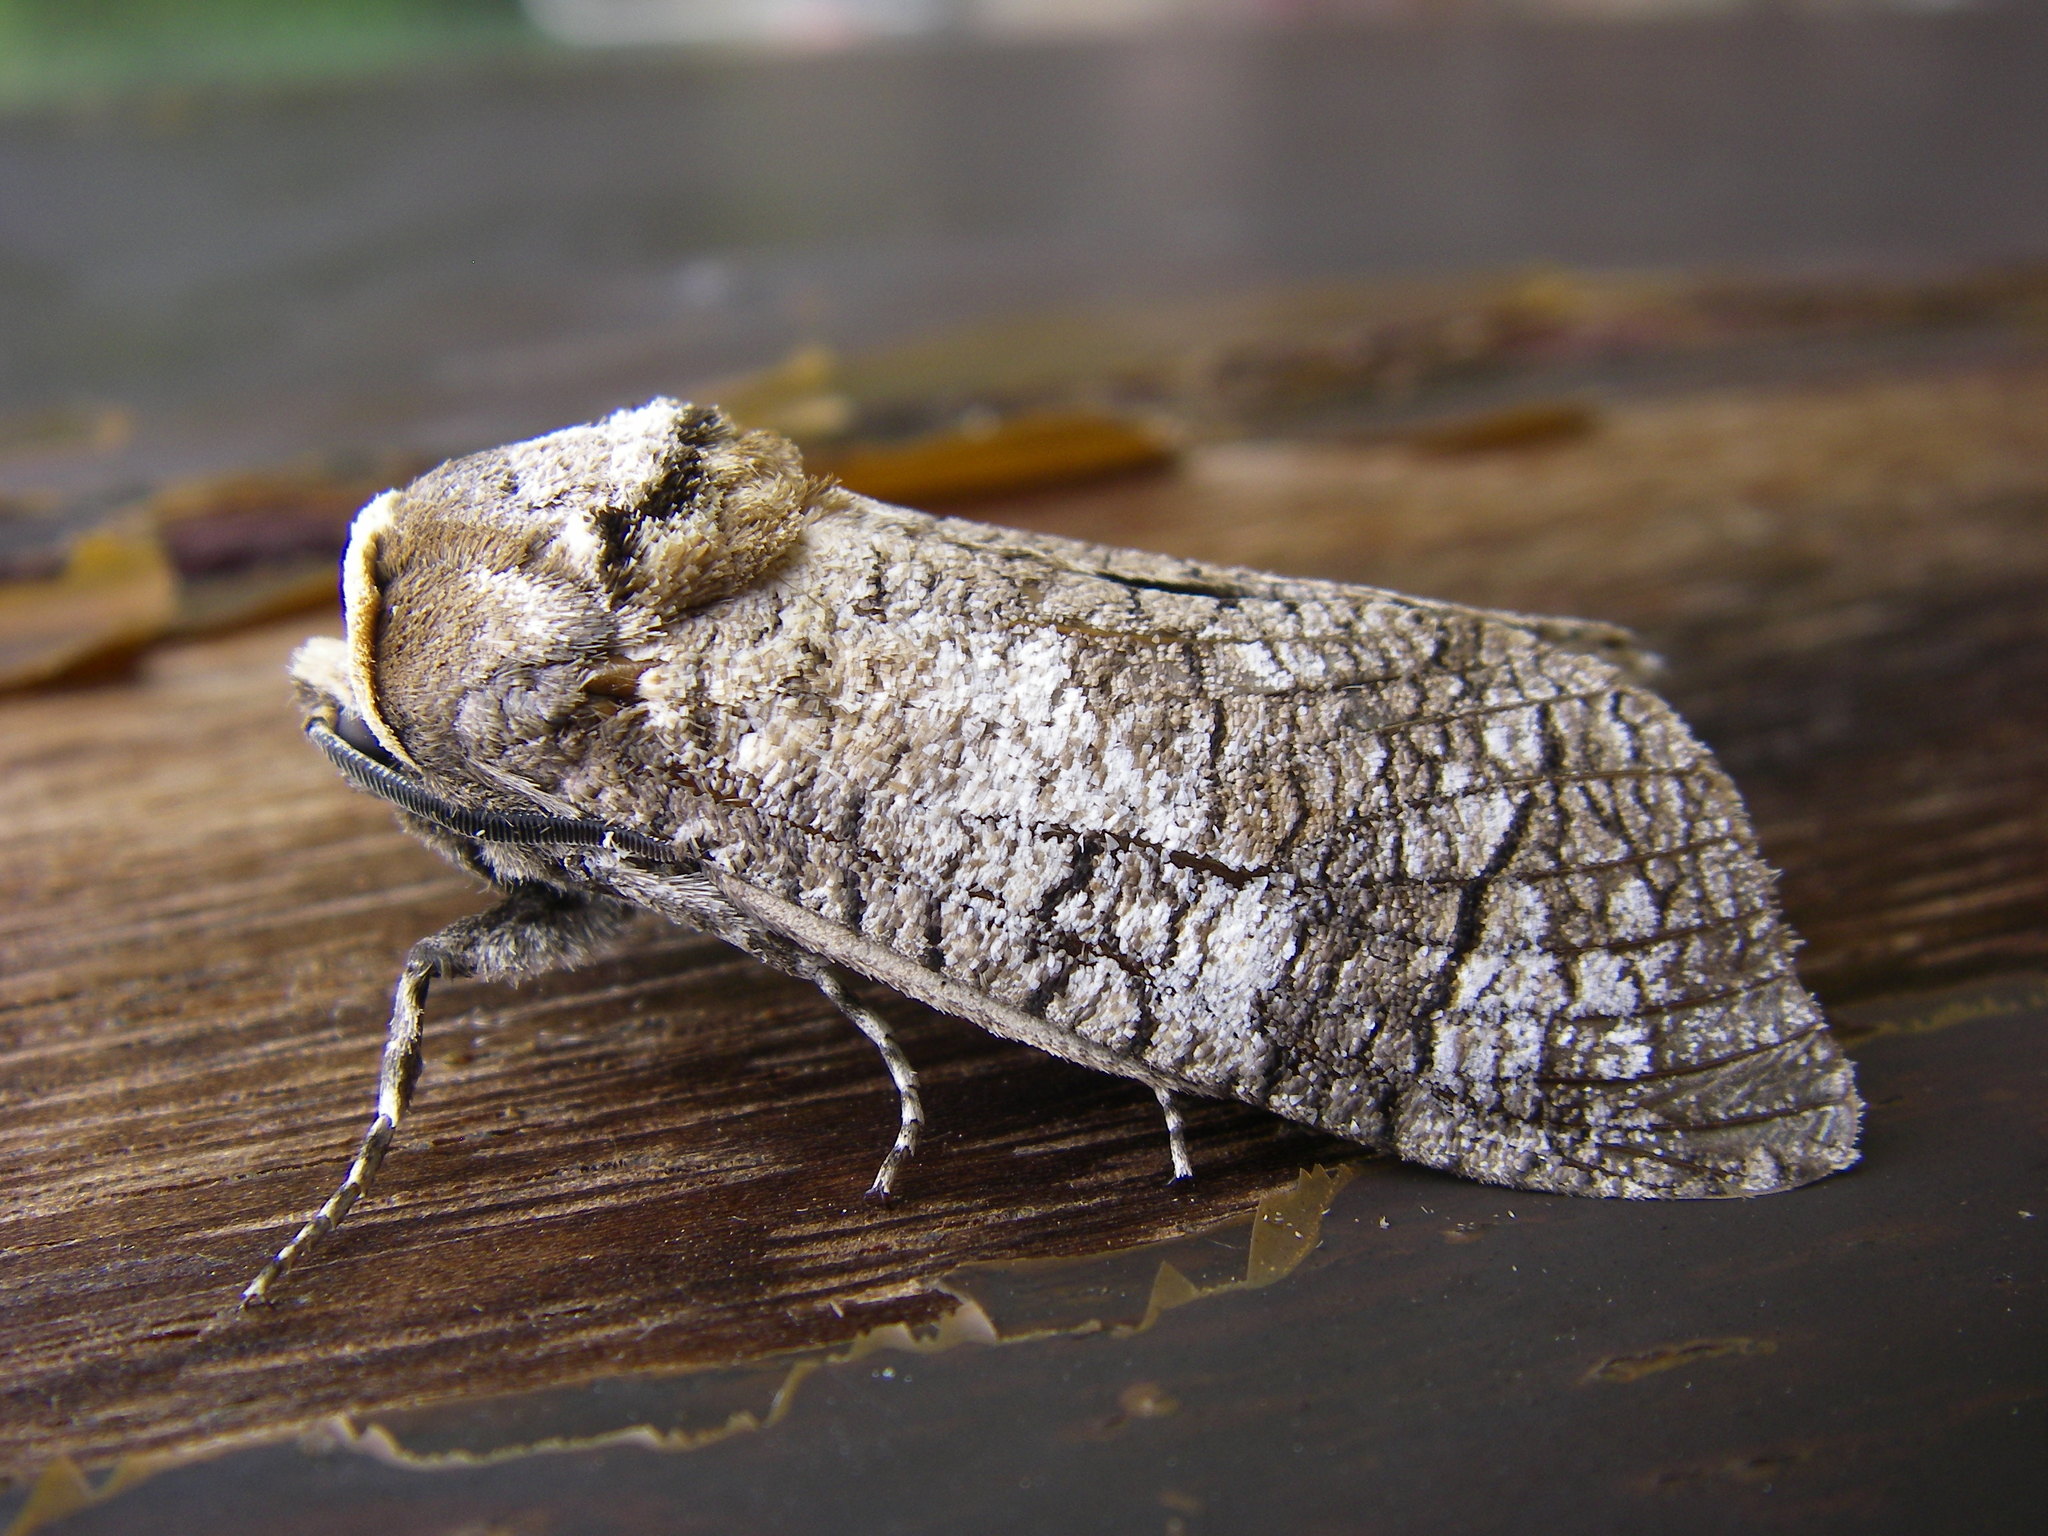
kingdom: Animalia
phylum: Arthropoda
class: Insecta
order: Lepidoptera
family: Cossidae
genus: Cossus
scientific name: Cossus cossus
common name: Goat moth
